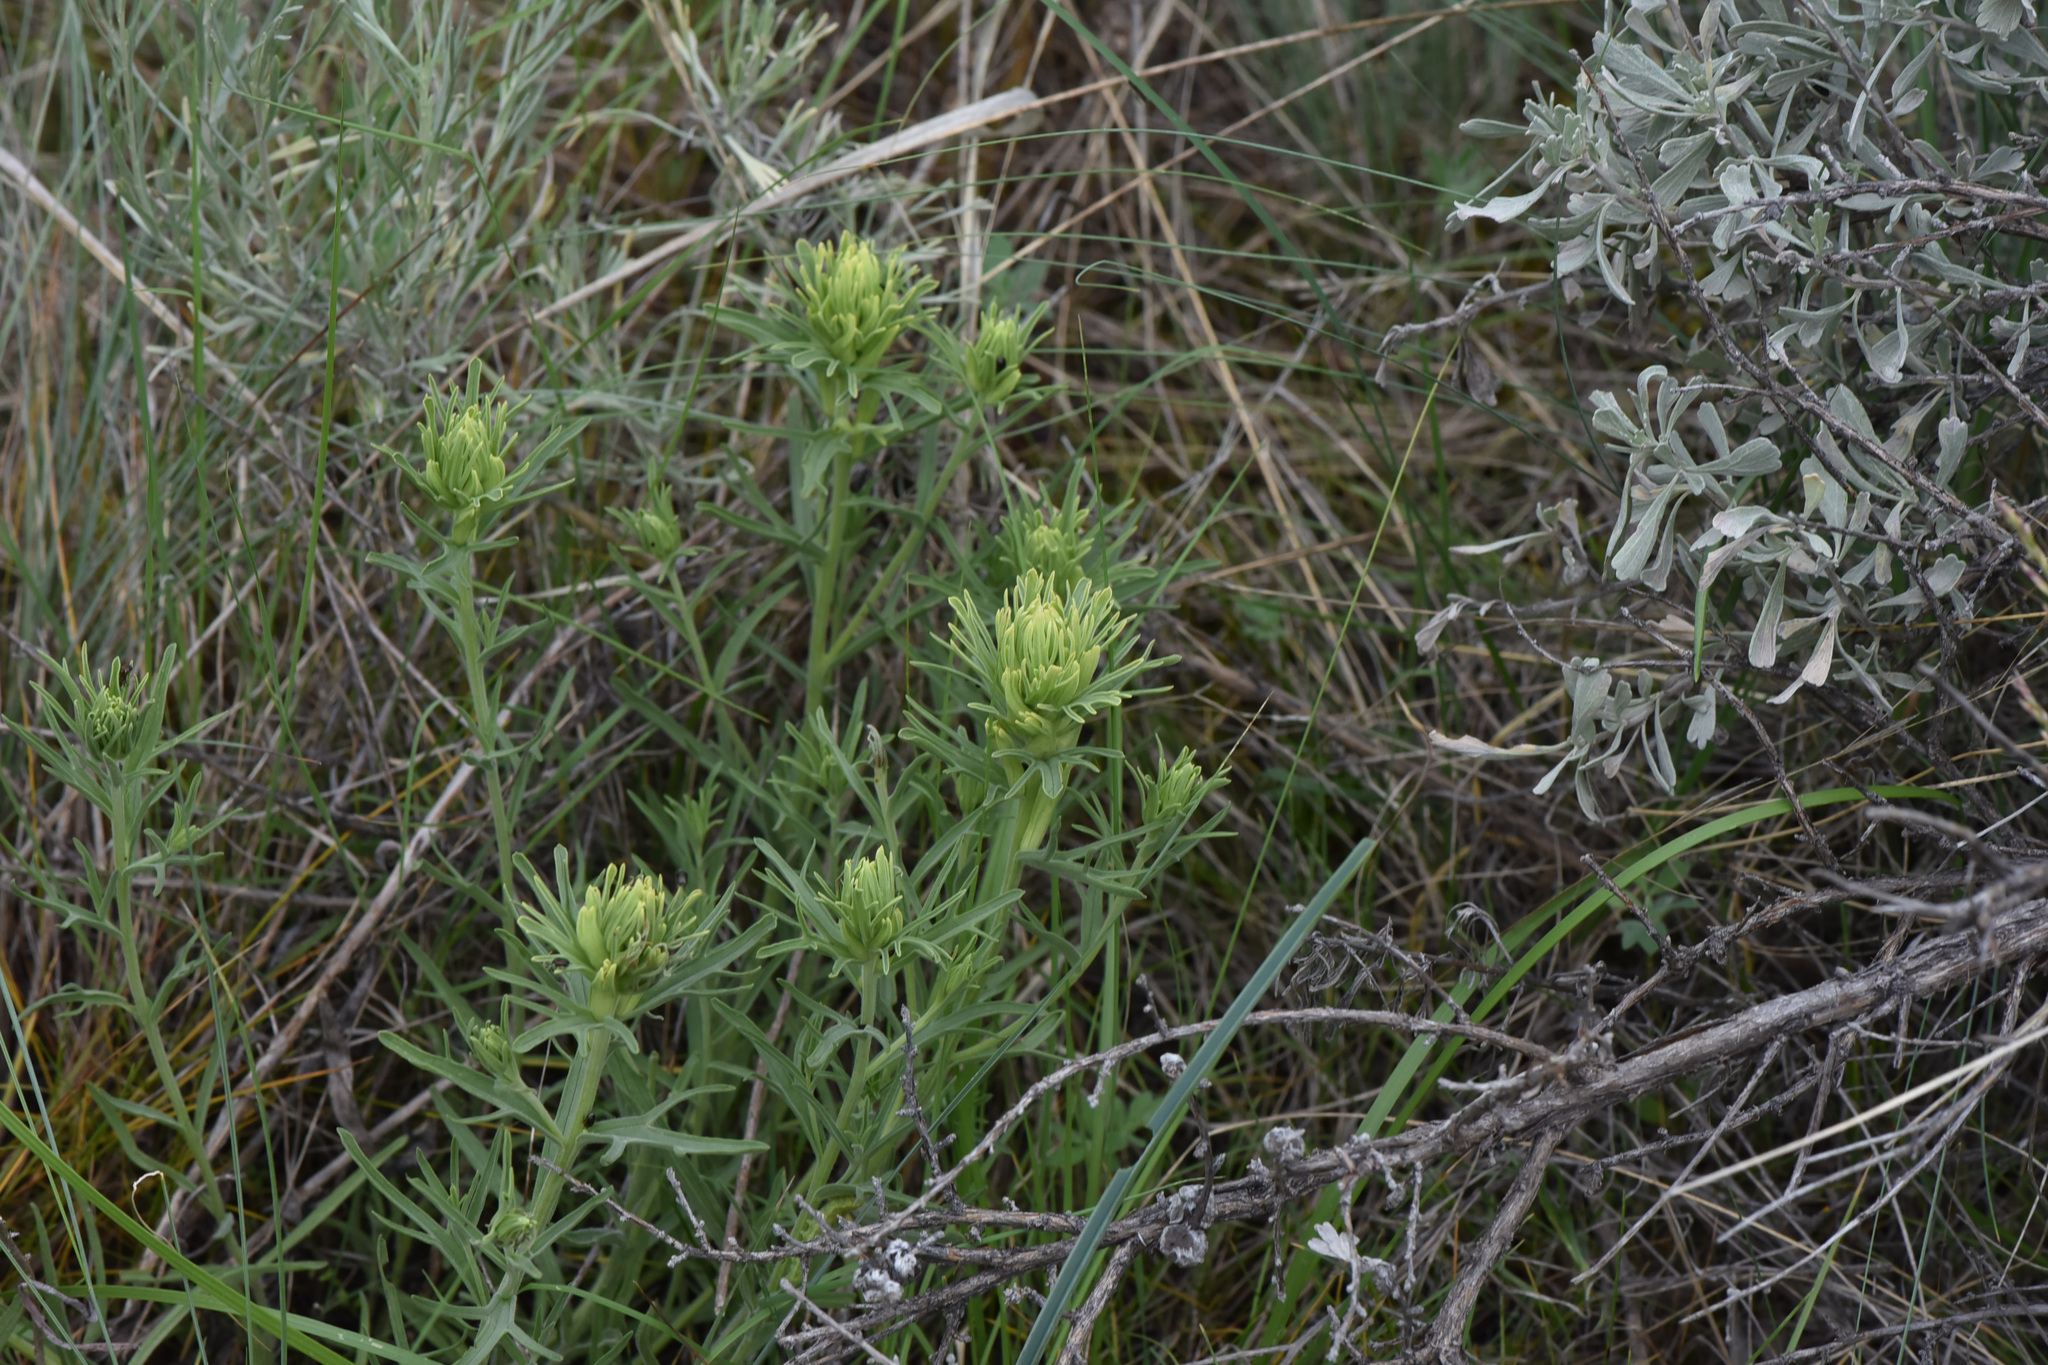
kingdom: Plantae
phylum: Tracheophyta
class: Magnoliopsida
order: Lamiales
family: Orobanchaceae
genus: Castilleja
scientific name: Castilleja thompsonii
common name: Thompson's paintbrush
